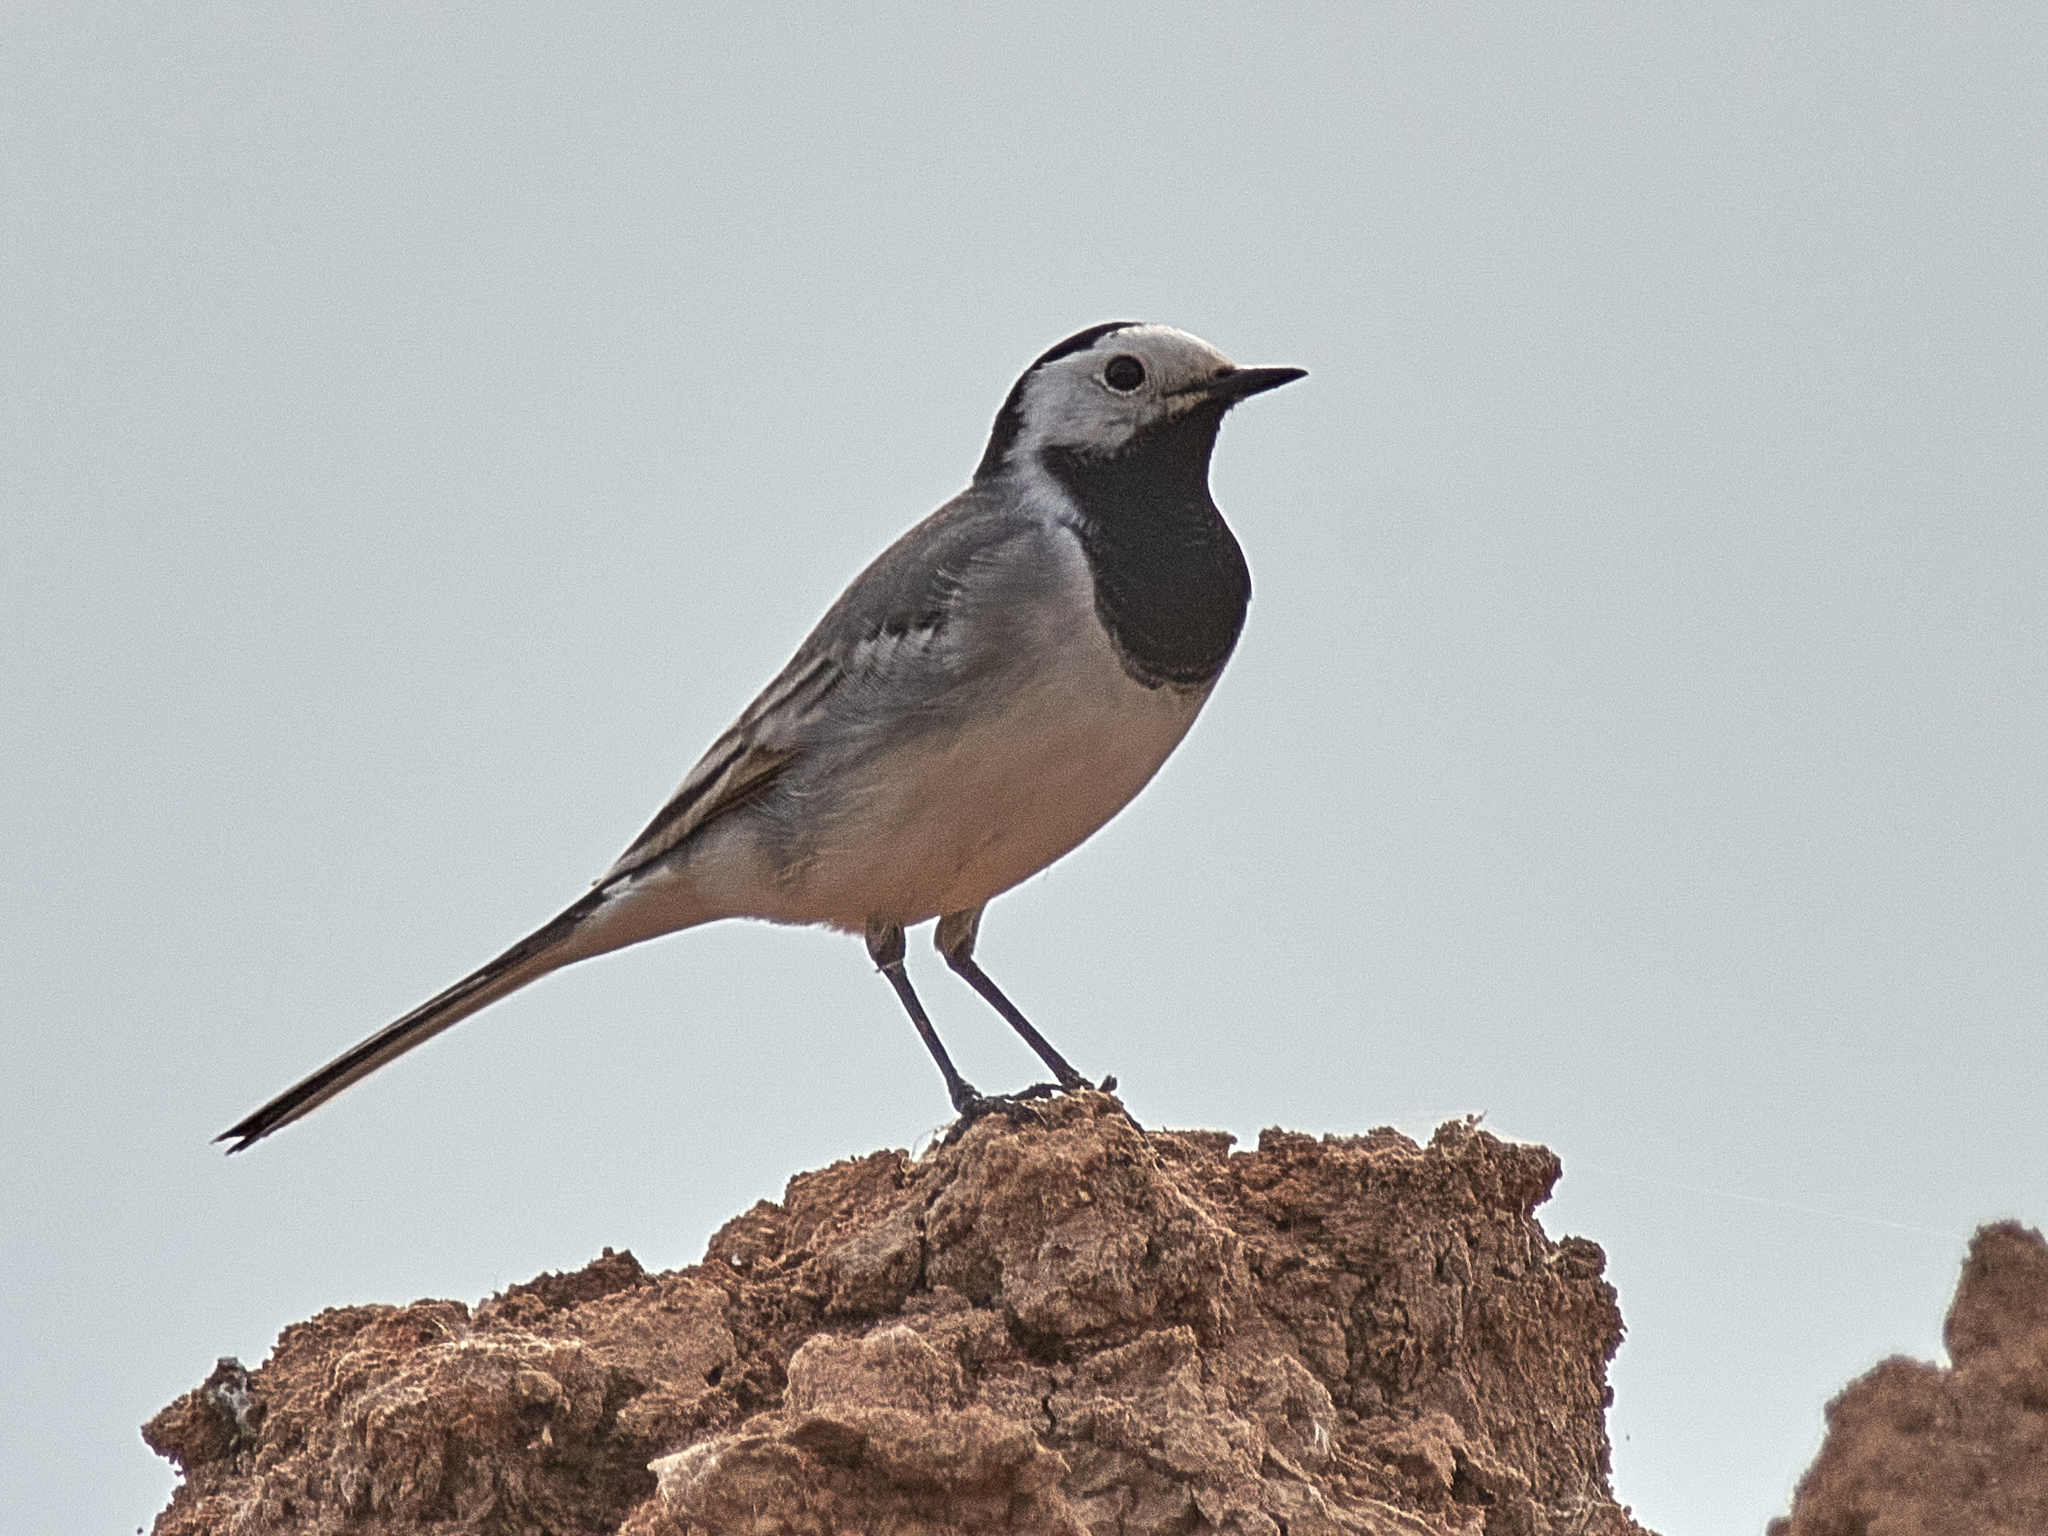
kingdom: Animalia
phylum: Chordata
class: Aves
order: Passeriformes
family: Motacillidae
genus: Motacilla
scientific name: Motacilla alba
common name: White wagtail
